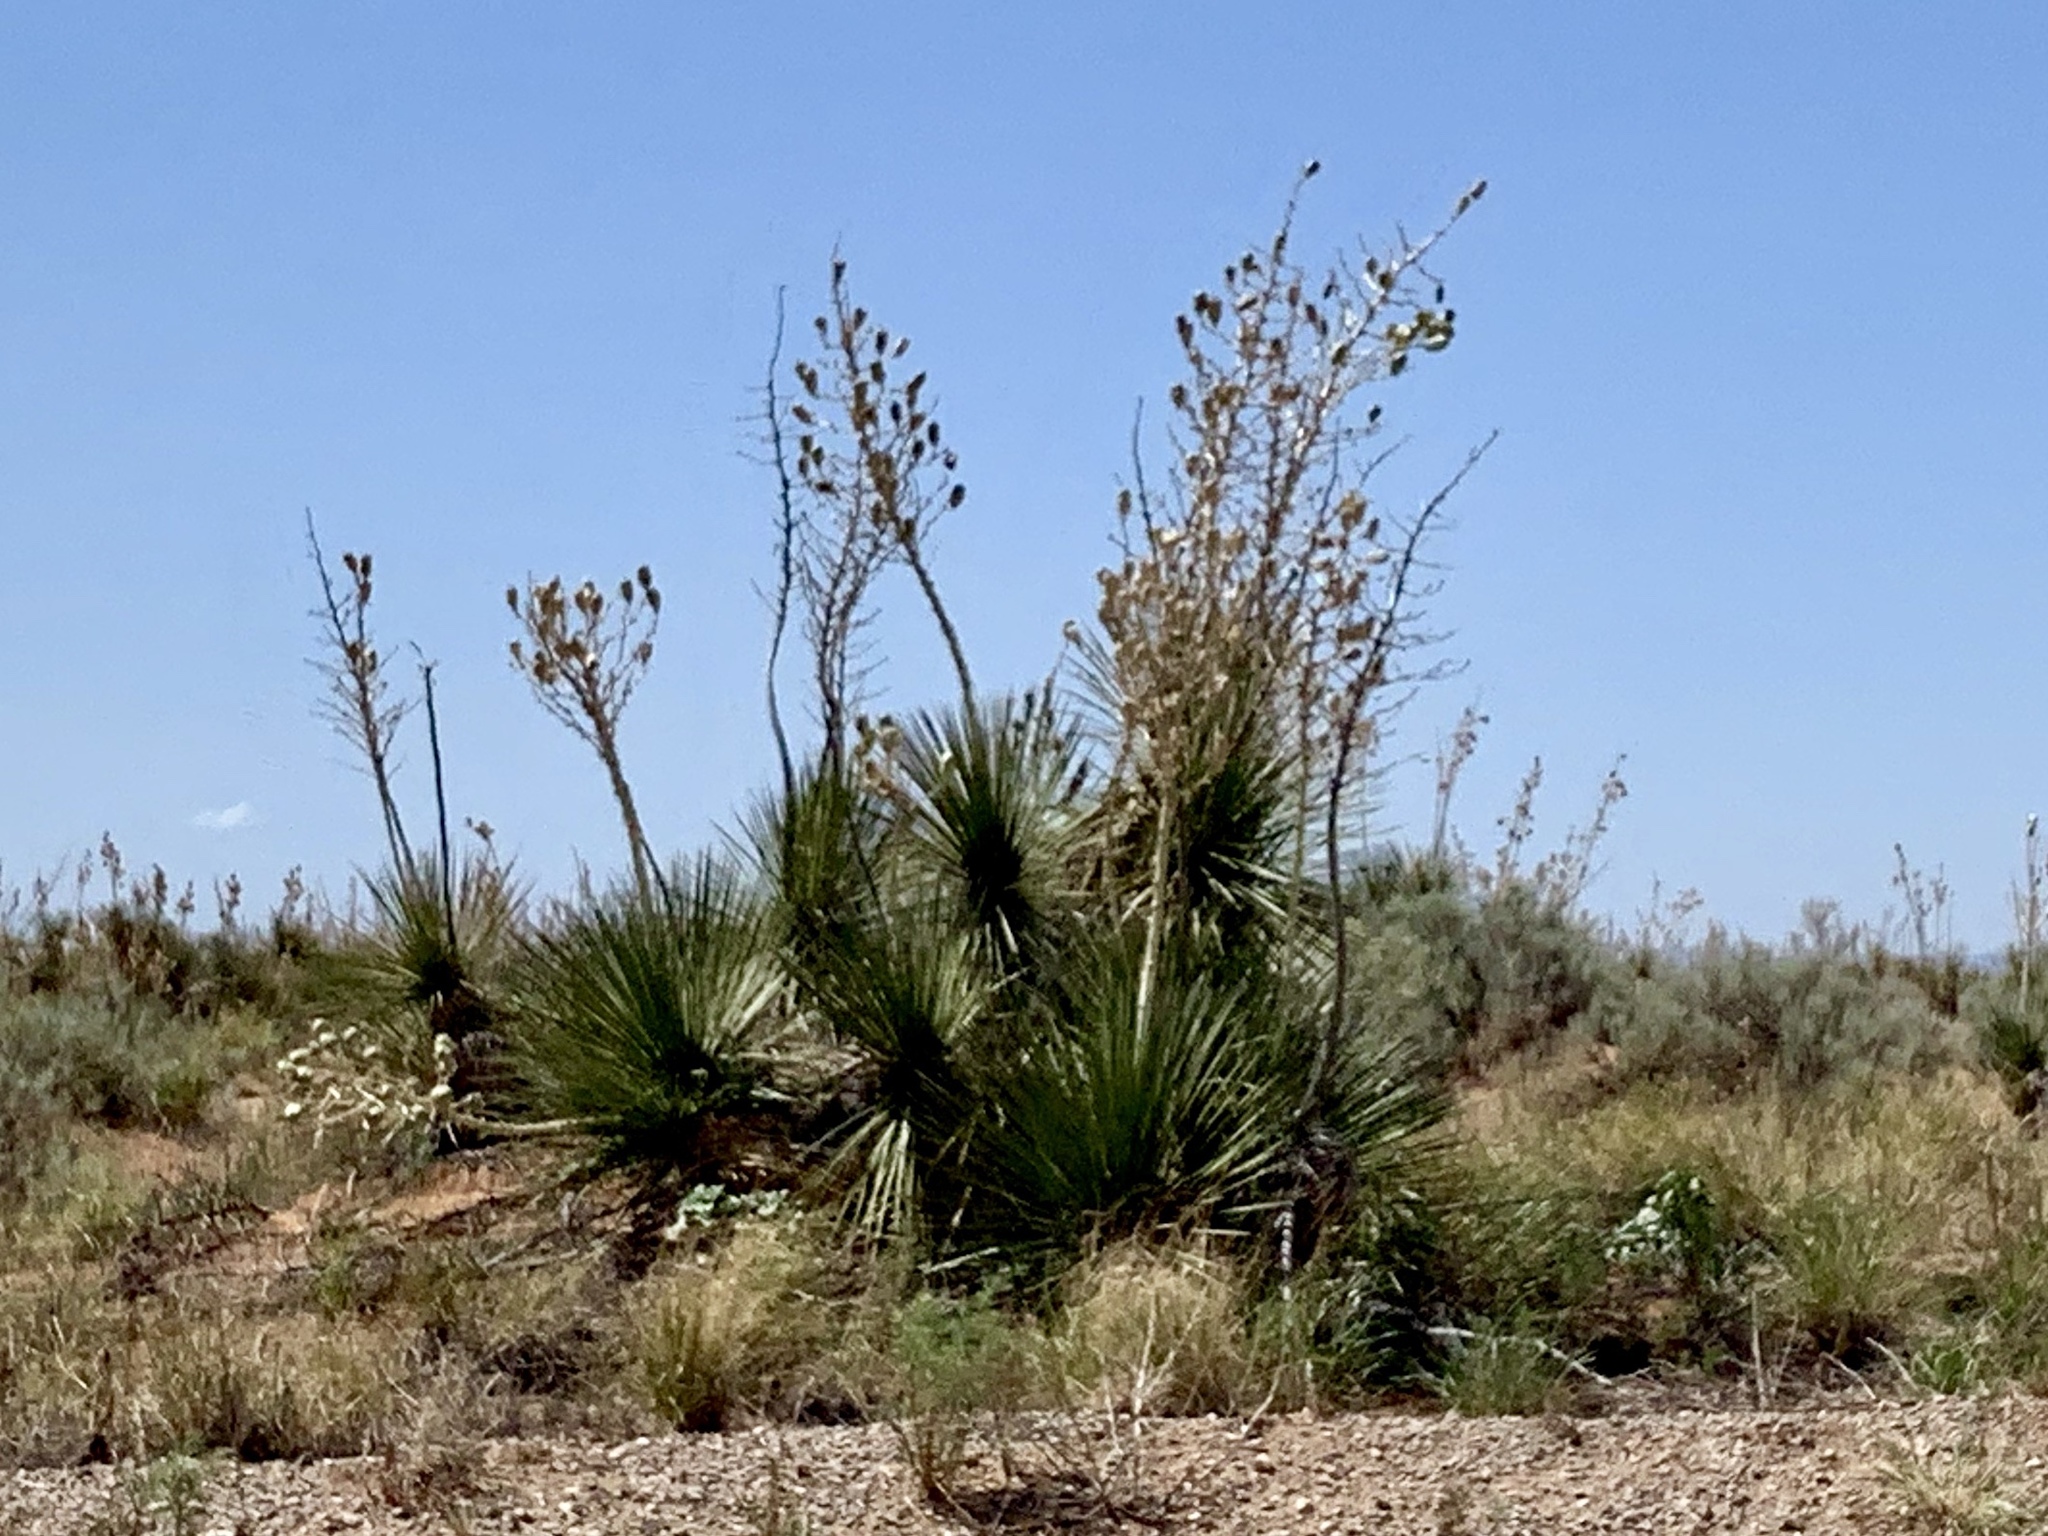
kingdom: Plantae
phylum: Tracheophyta
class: Liliopsida
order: Asparagales
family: Asparagaceae
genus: Yucca
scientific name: Yucca elata
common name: Palmella
